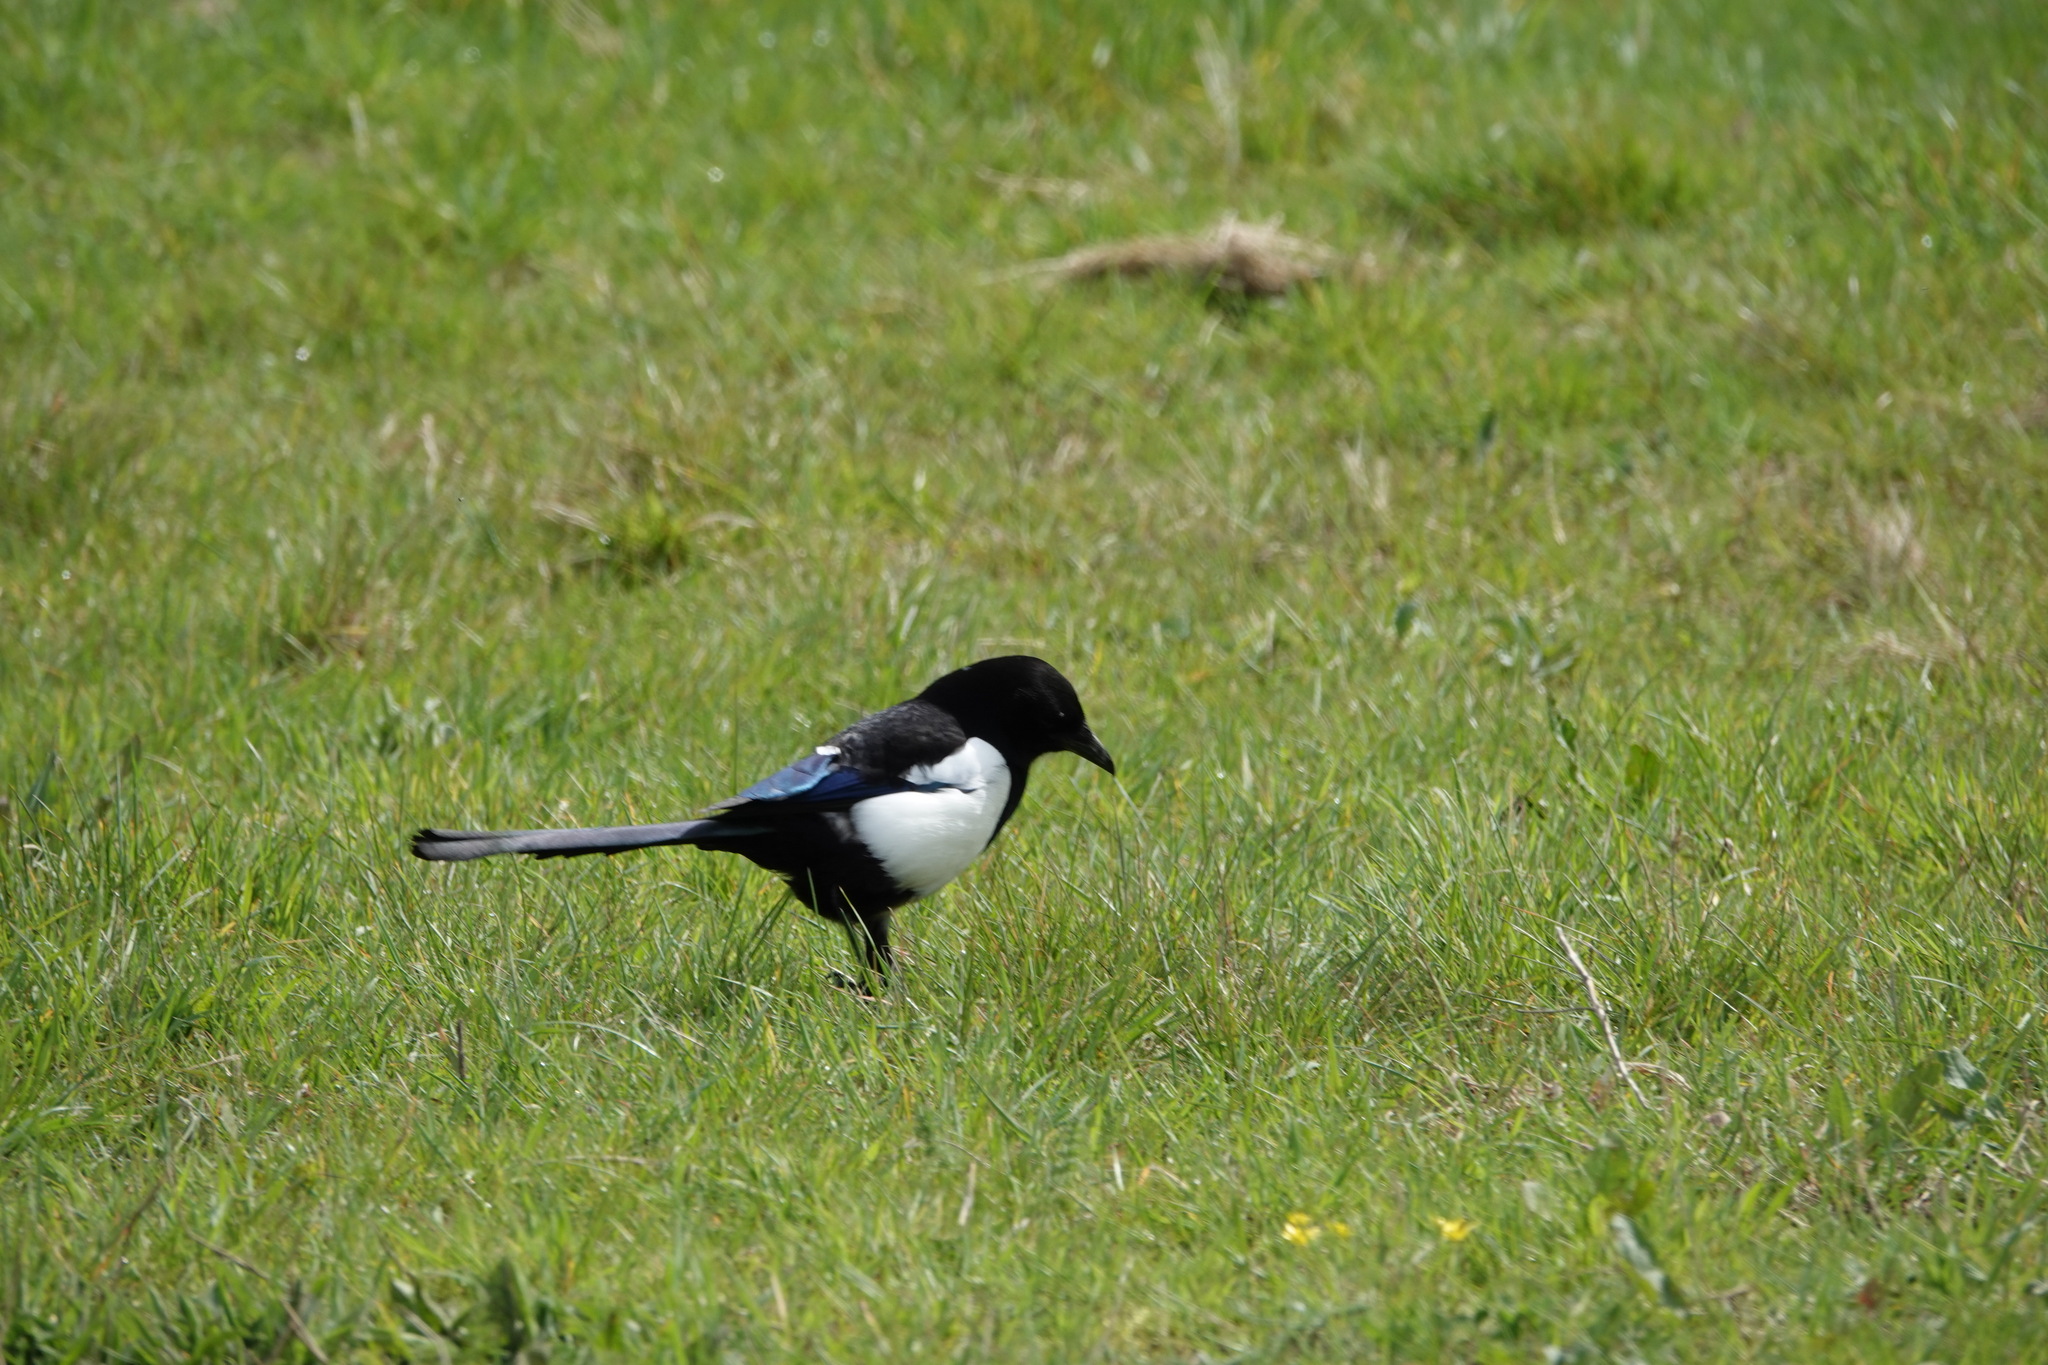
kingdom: Animalia
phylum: Chordata
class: Aves
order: Passeriformes
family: Corvidae
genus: Pica
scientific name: Pica pica
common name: Eurasian magpie
